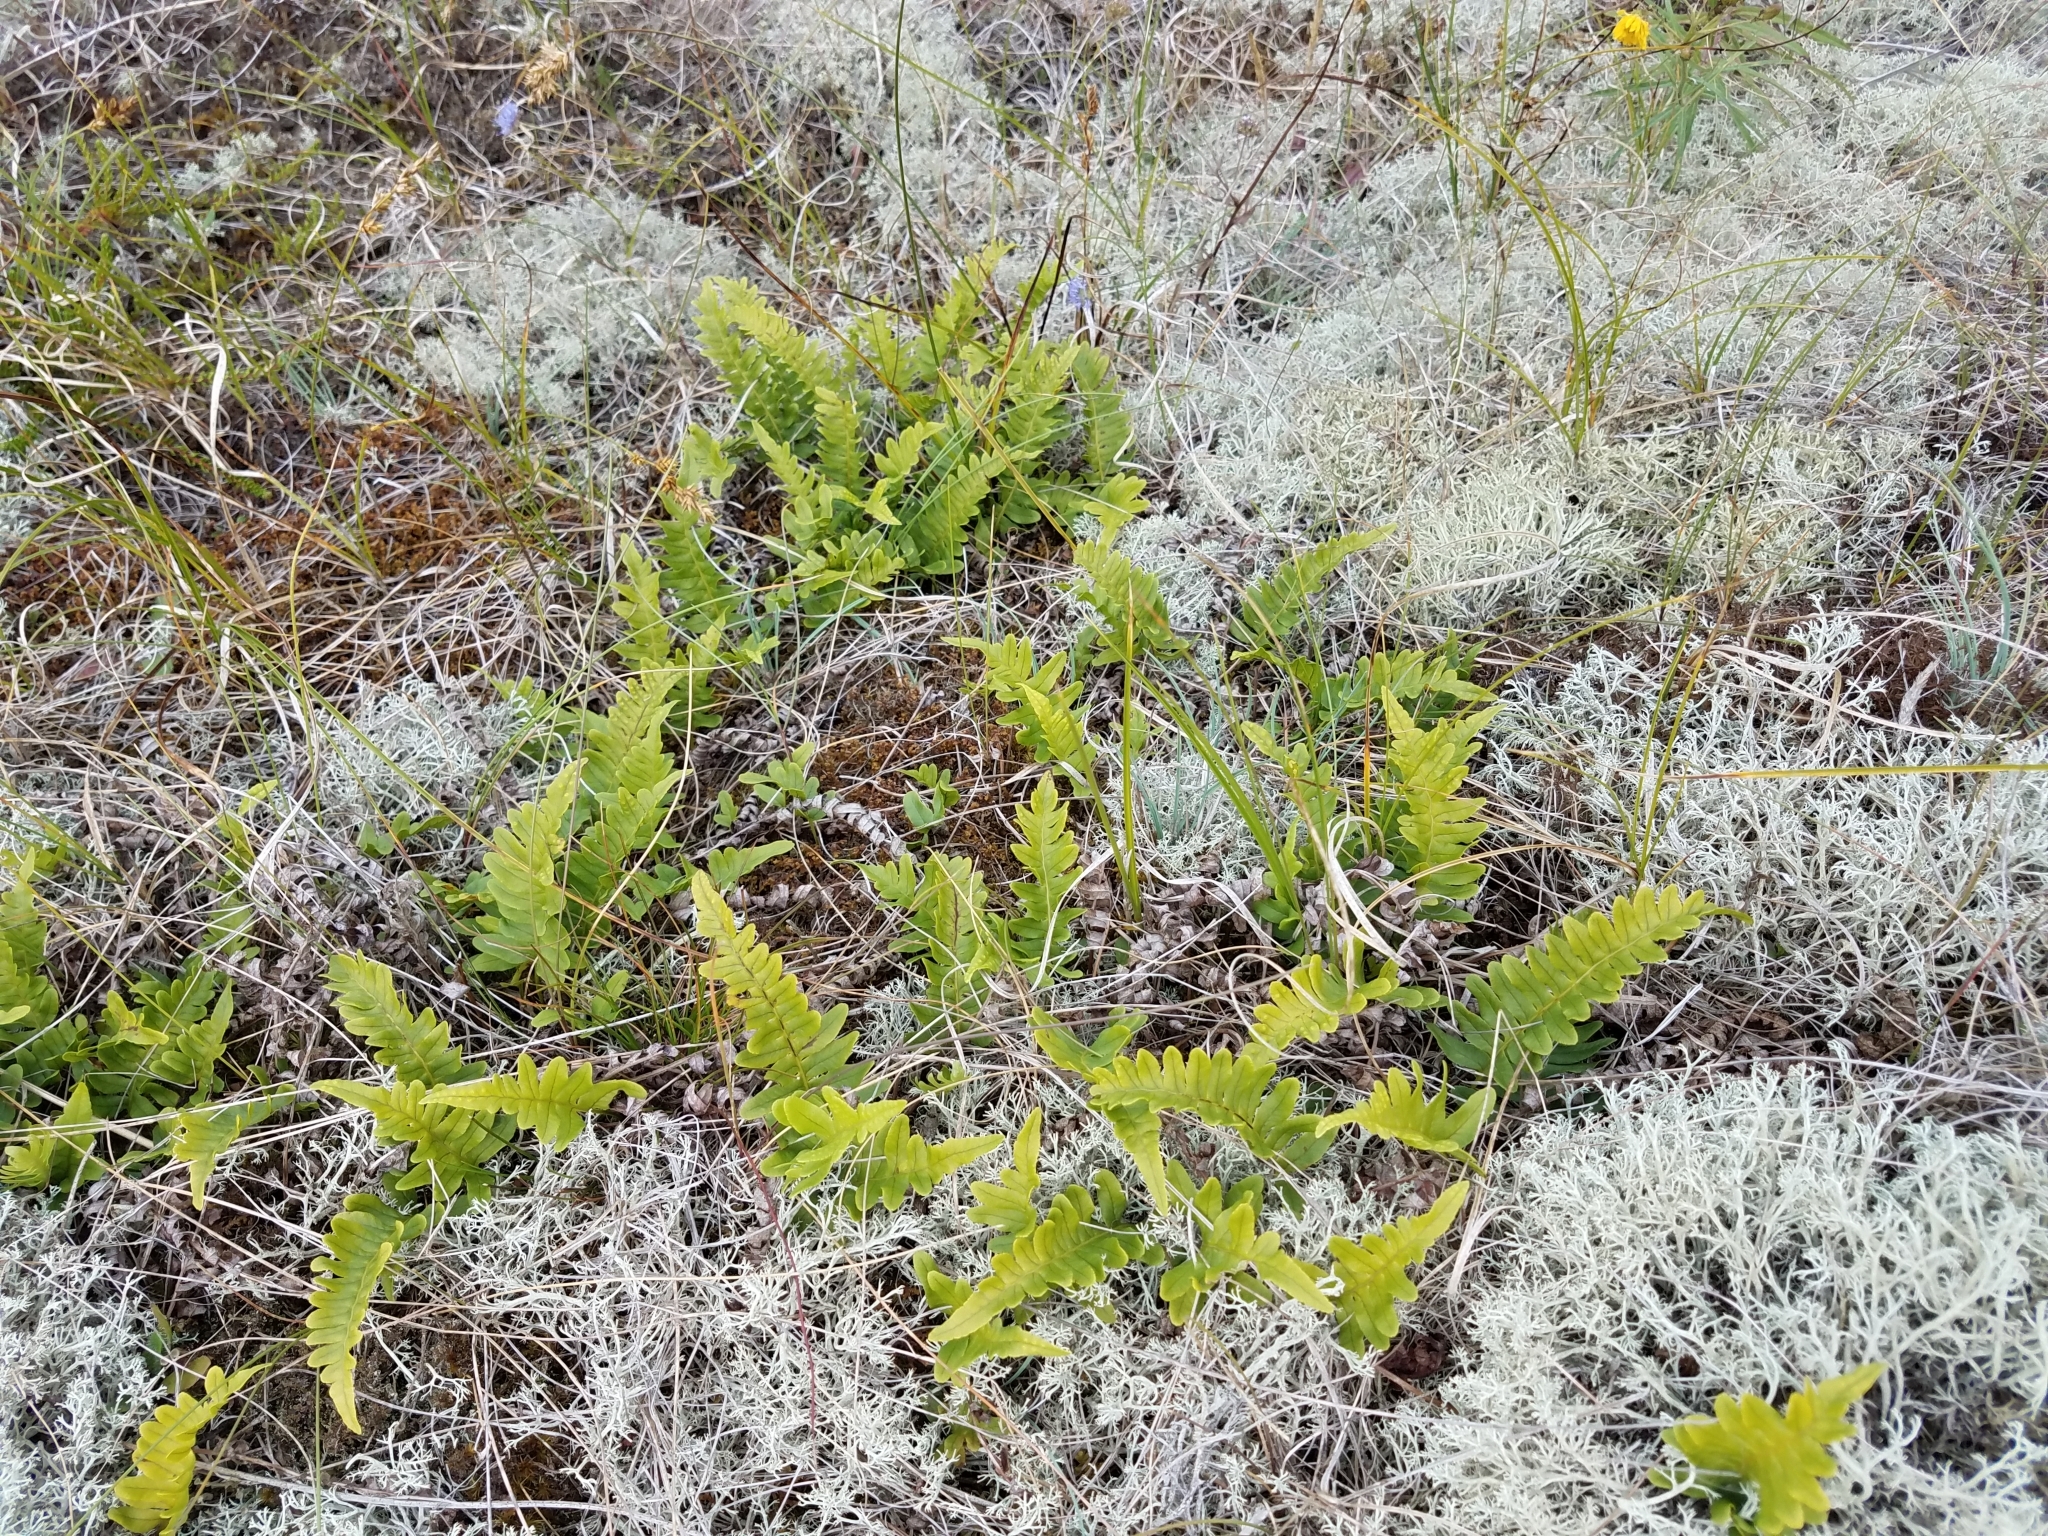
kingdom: Plantae
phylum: Tracheophyta
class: Polypodiopsida
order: Polypodiales
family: Polypodiaceae
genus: Polypodium
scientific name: Polypodium vulgare
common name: Common polypody
